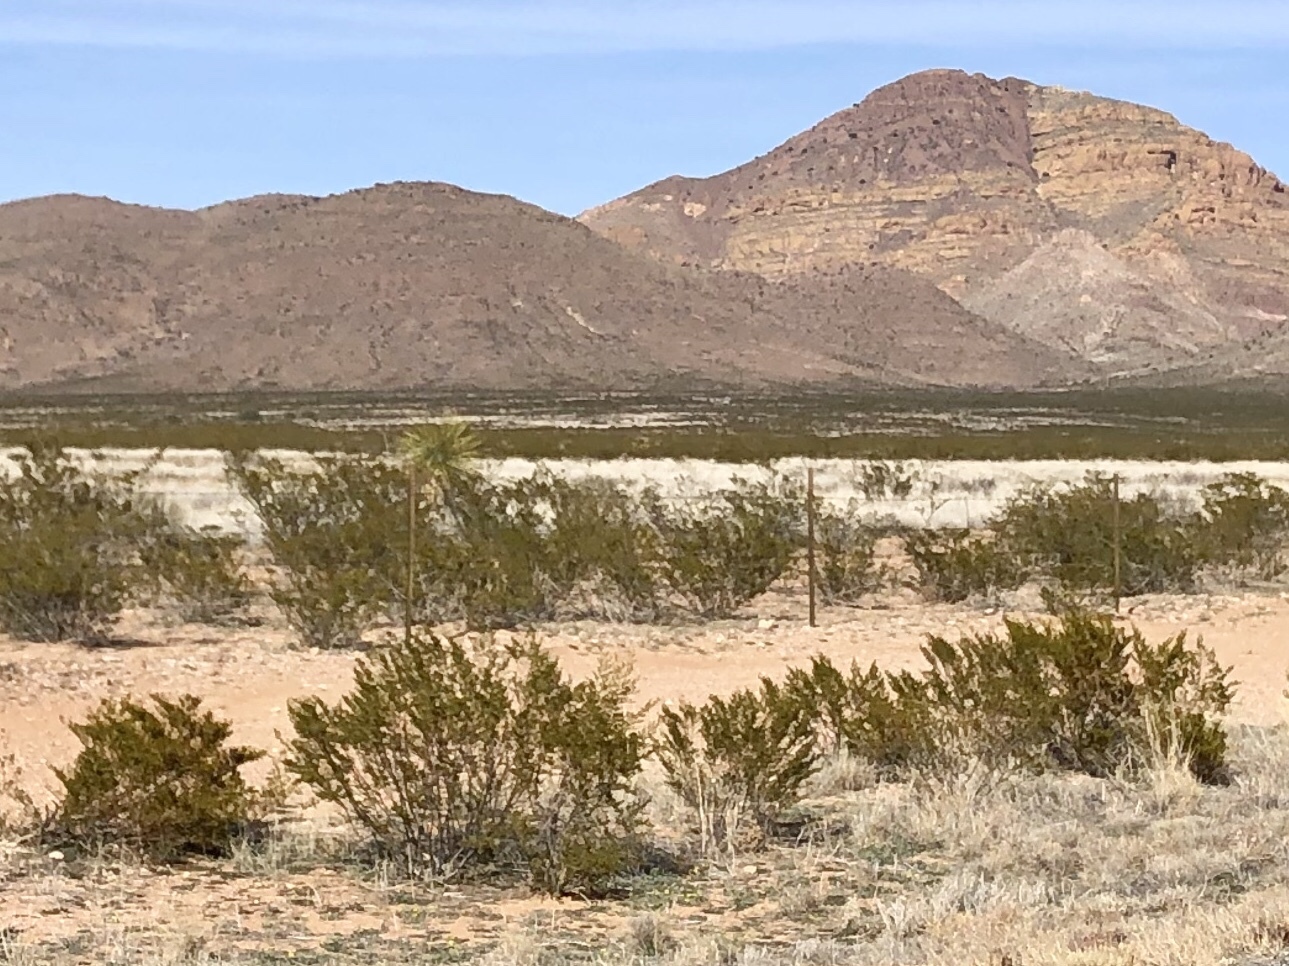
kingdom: Plantae
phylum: Tracheophyta
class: Magnoliopsida
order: Zygophyllales
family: Zygophyllaceae
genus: Larrea
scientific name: Larrea tridentata
